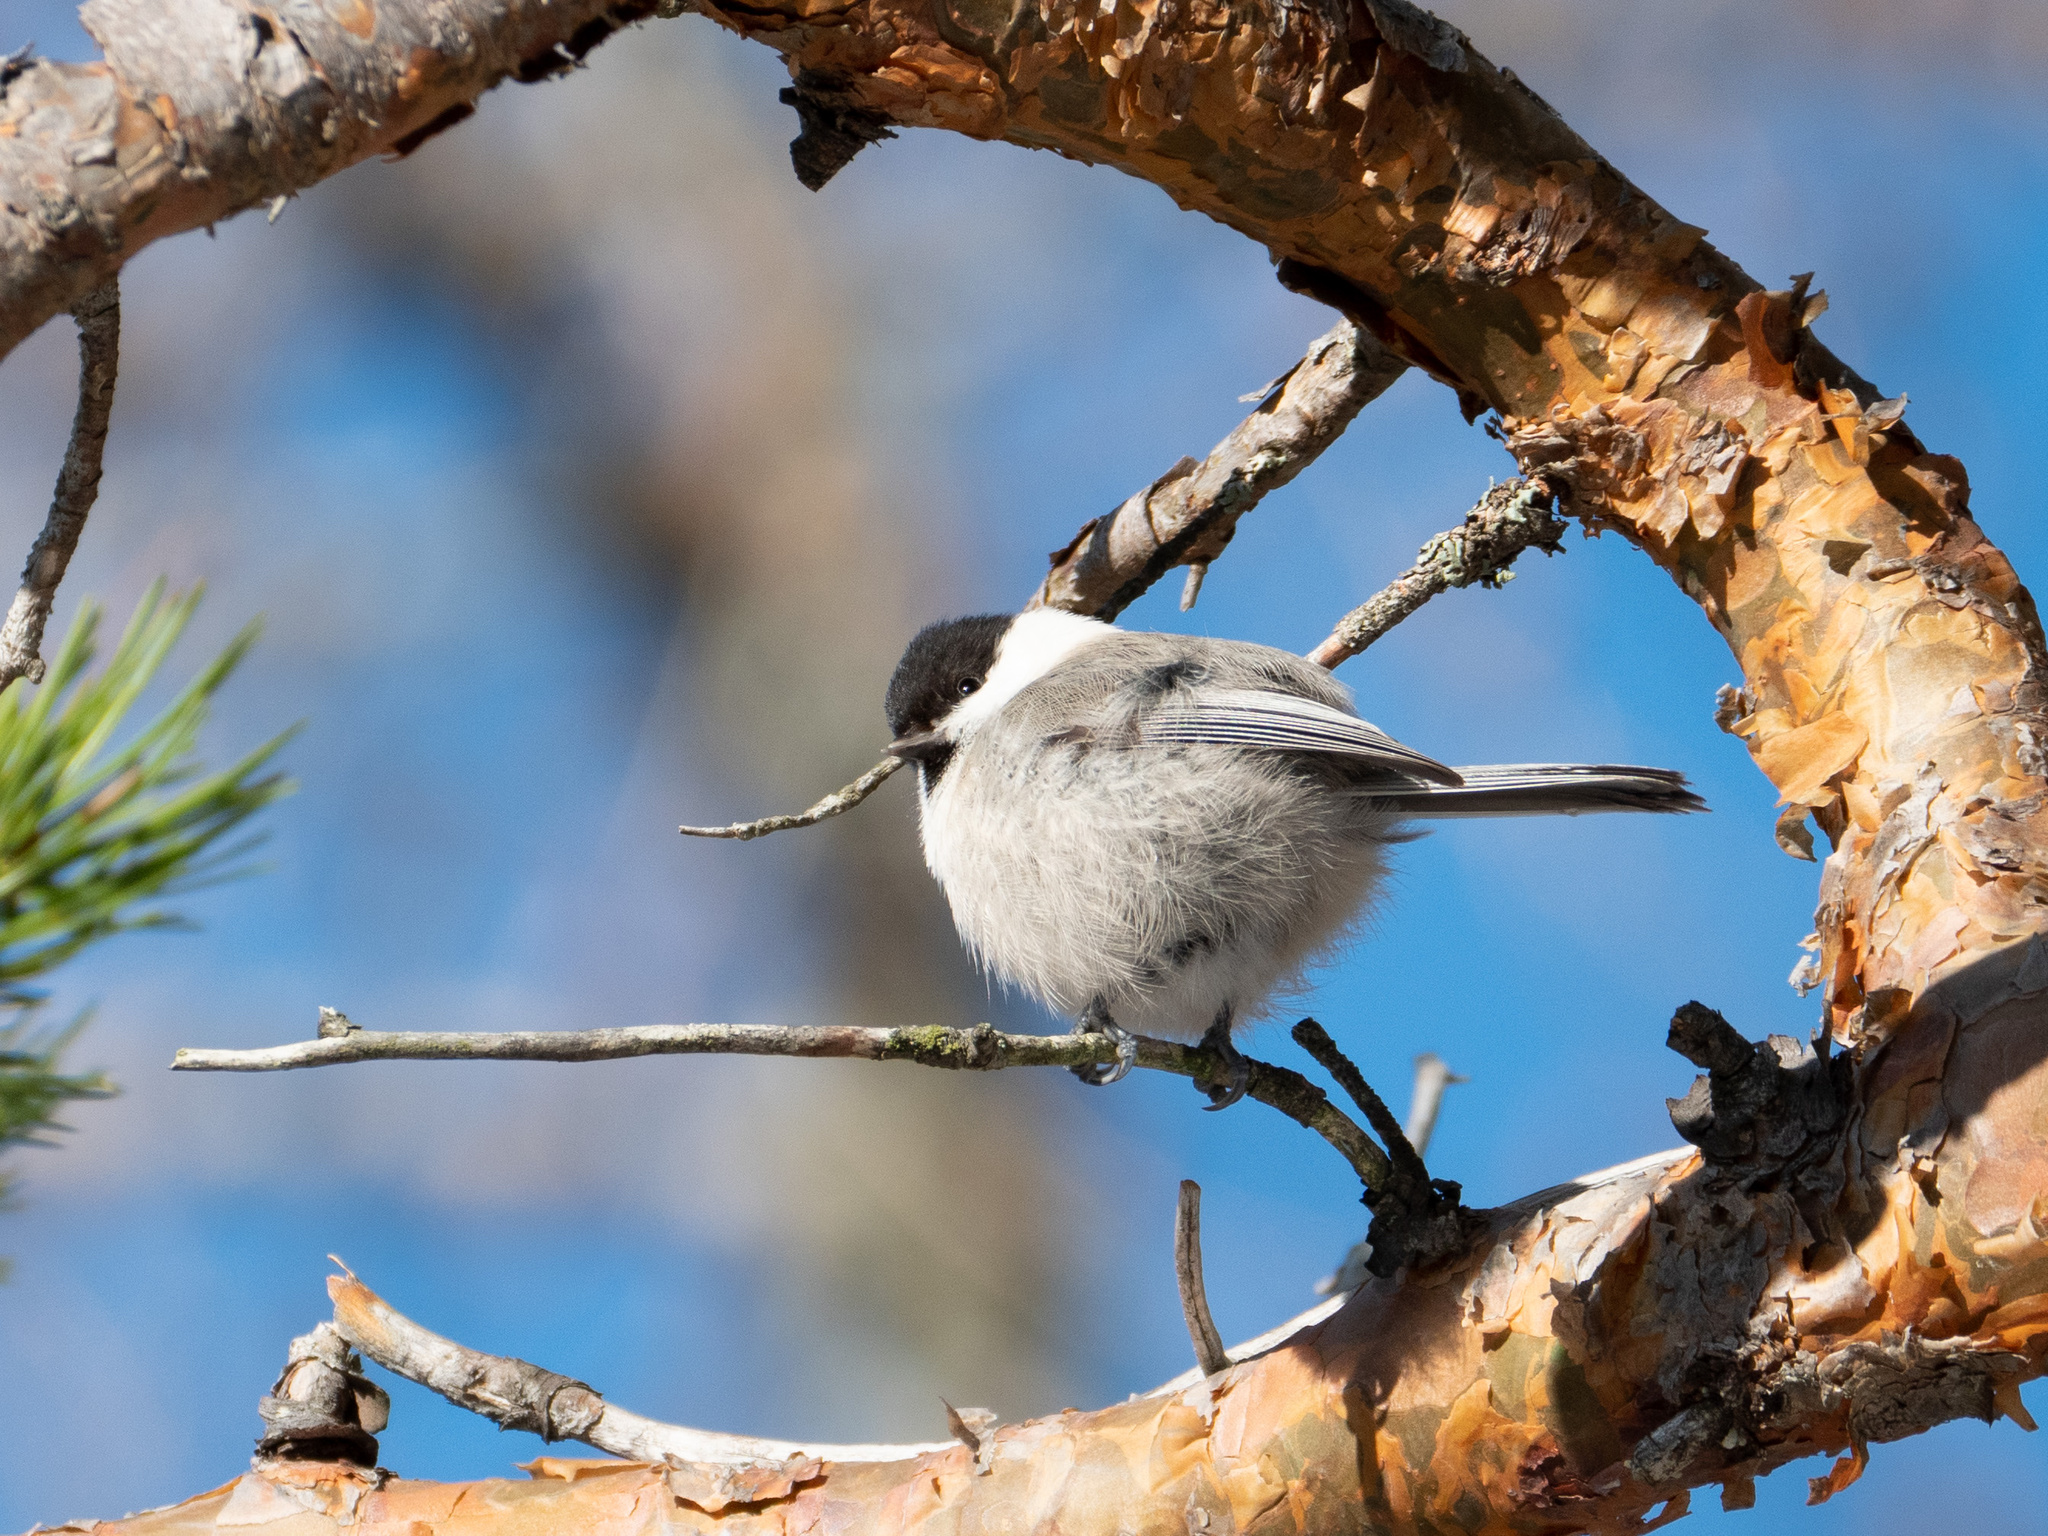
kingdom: Animalia
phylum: Chordata
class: Aves
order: Passeriformes
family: Paridae
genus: Poecile
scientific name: Poecile montanus
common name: Willow tit
